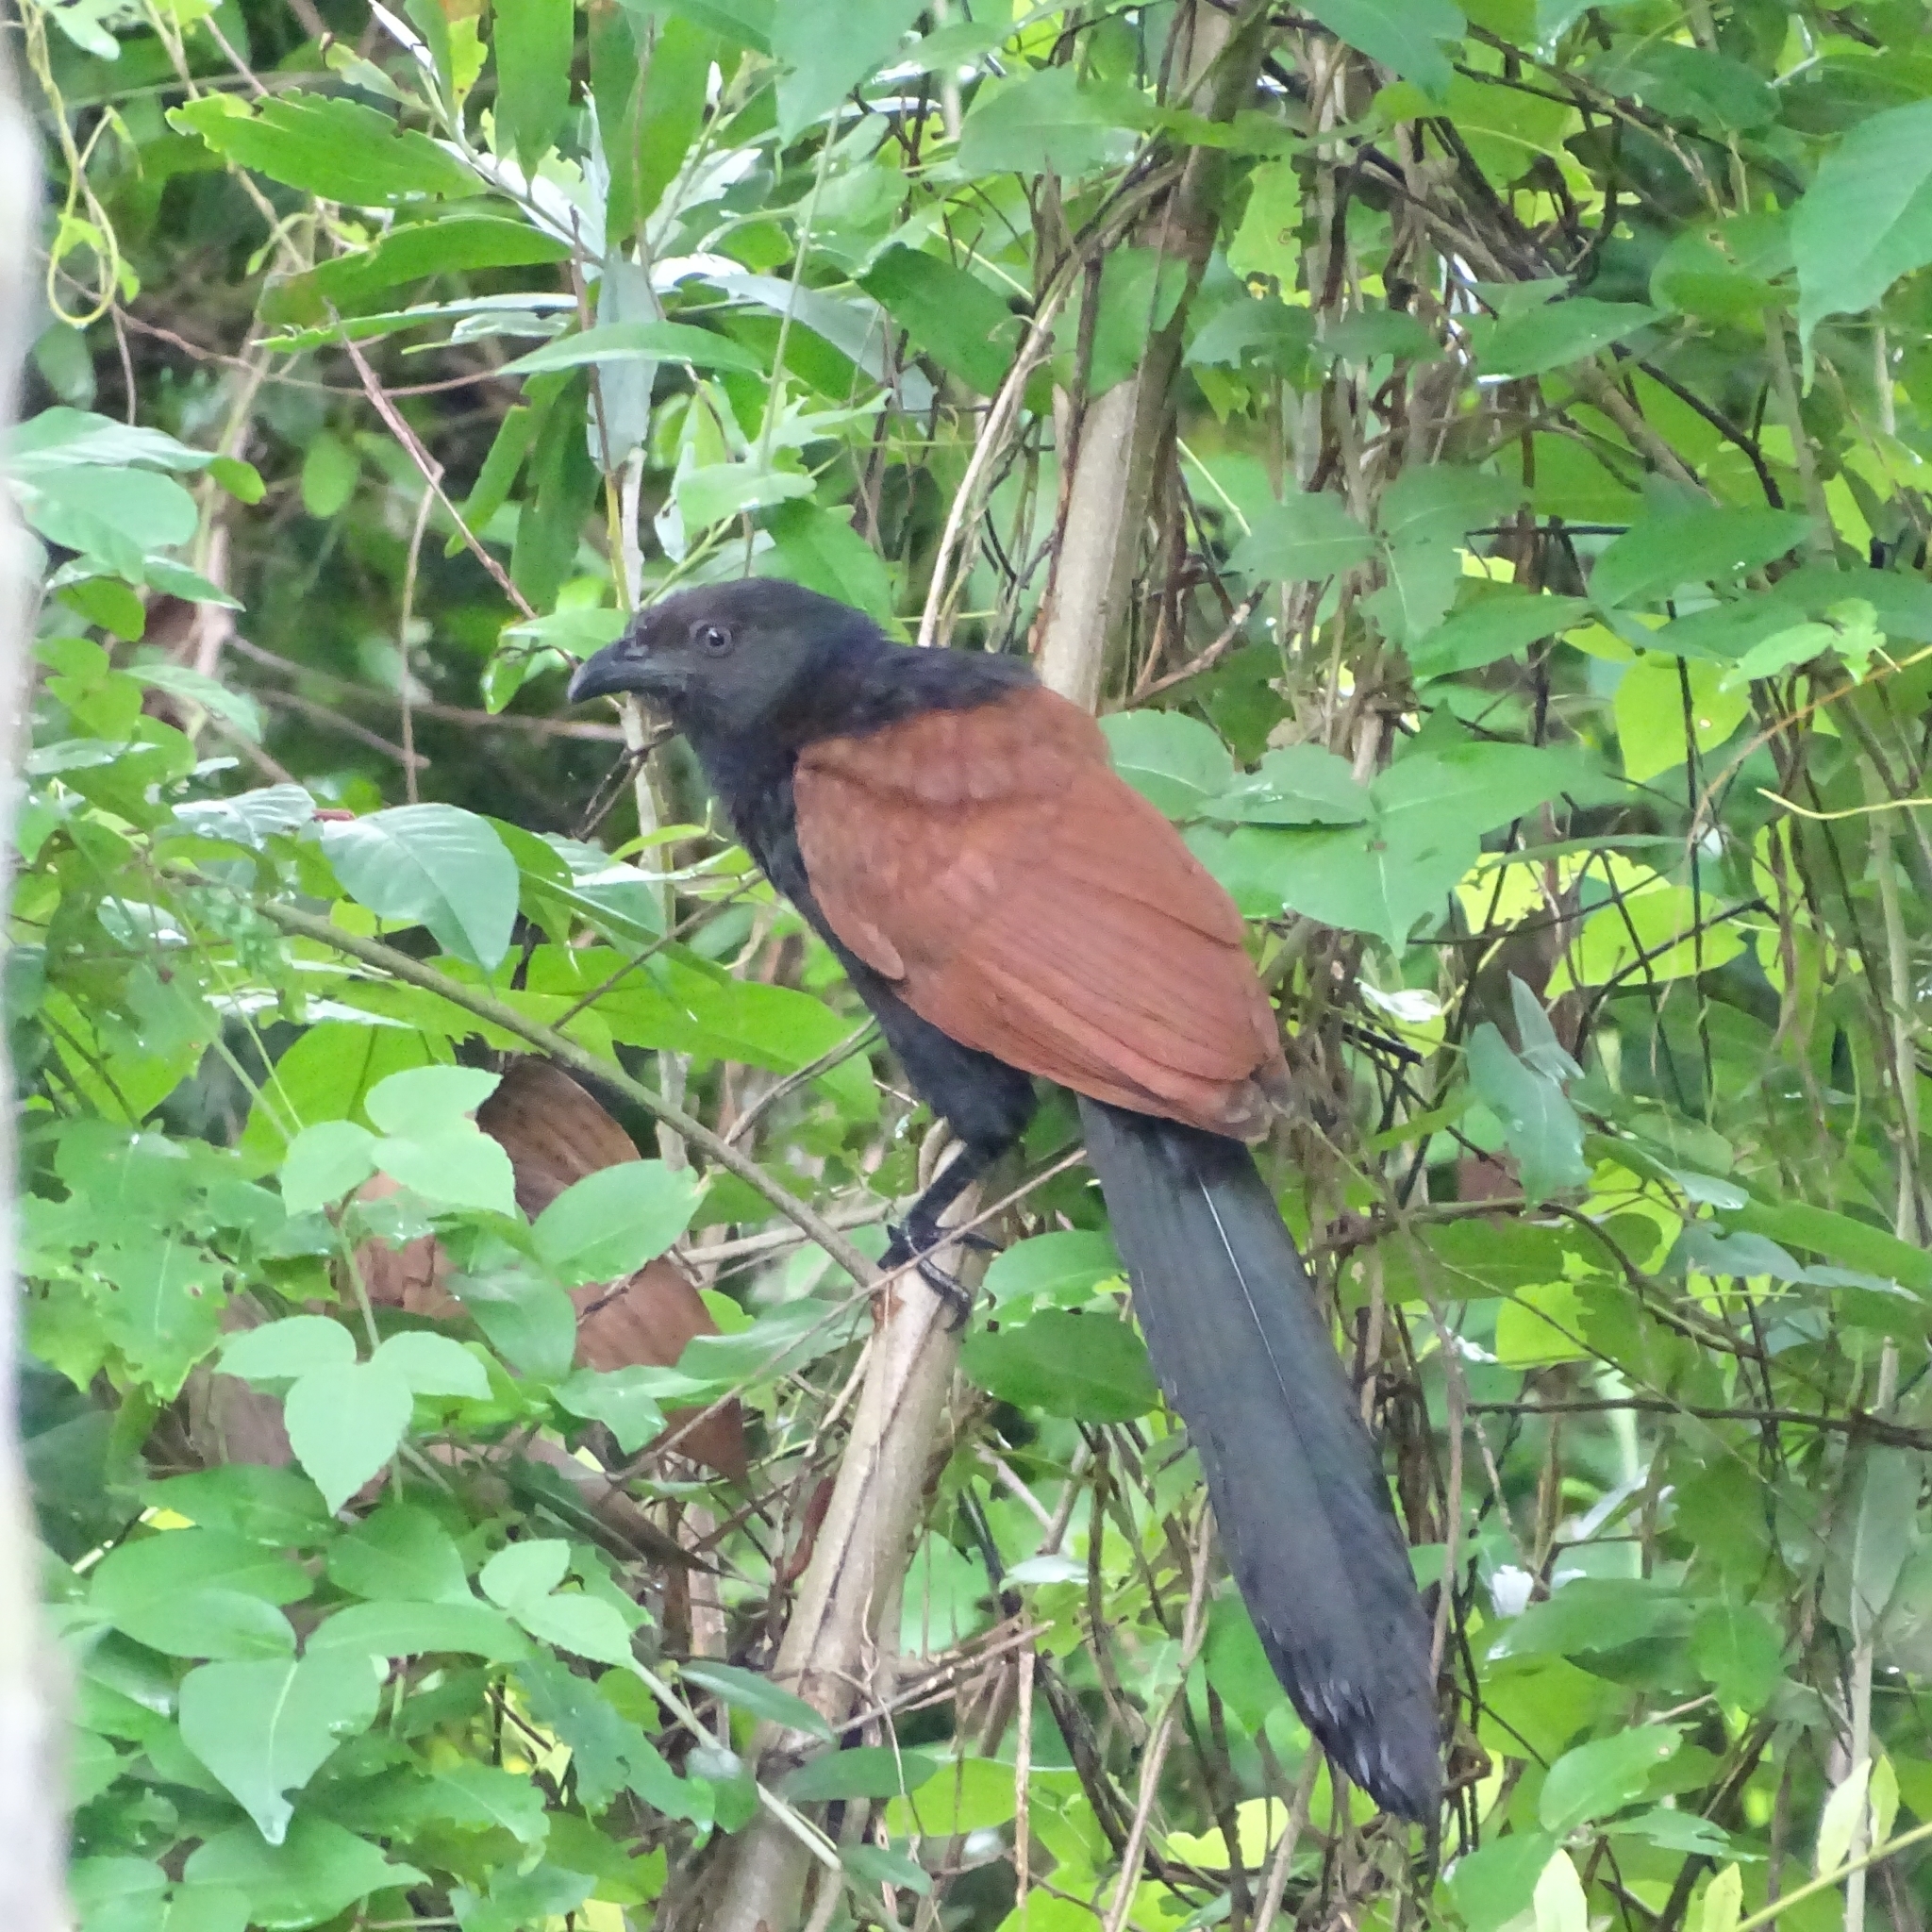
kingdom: Animalia
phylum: Chordata
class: Aves
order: Cuculiformes
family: Cuculidae
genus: Centropus
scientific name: Centropus sinensis
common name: Greater coucal
